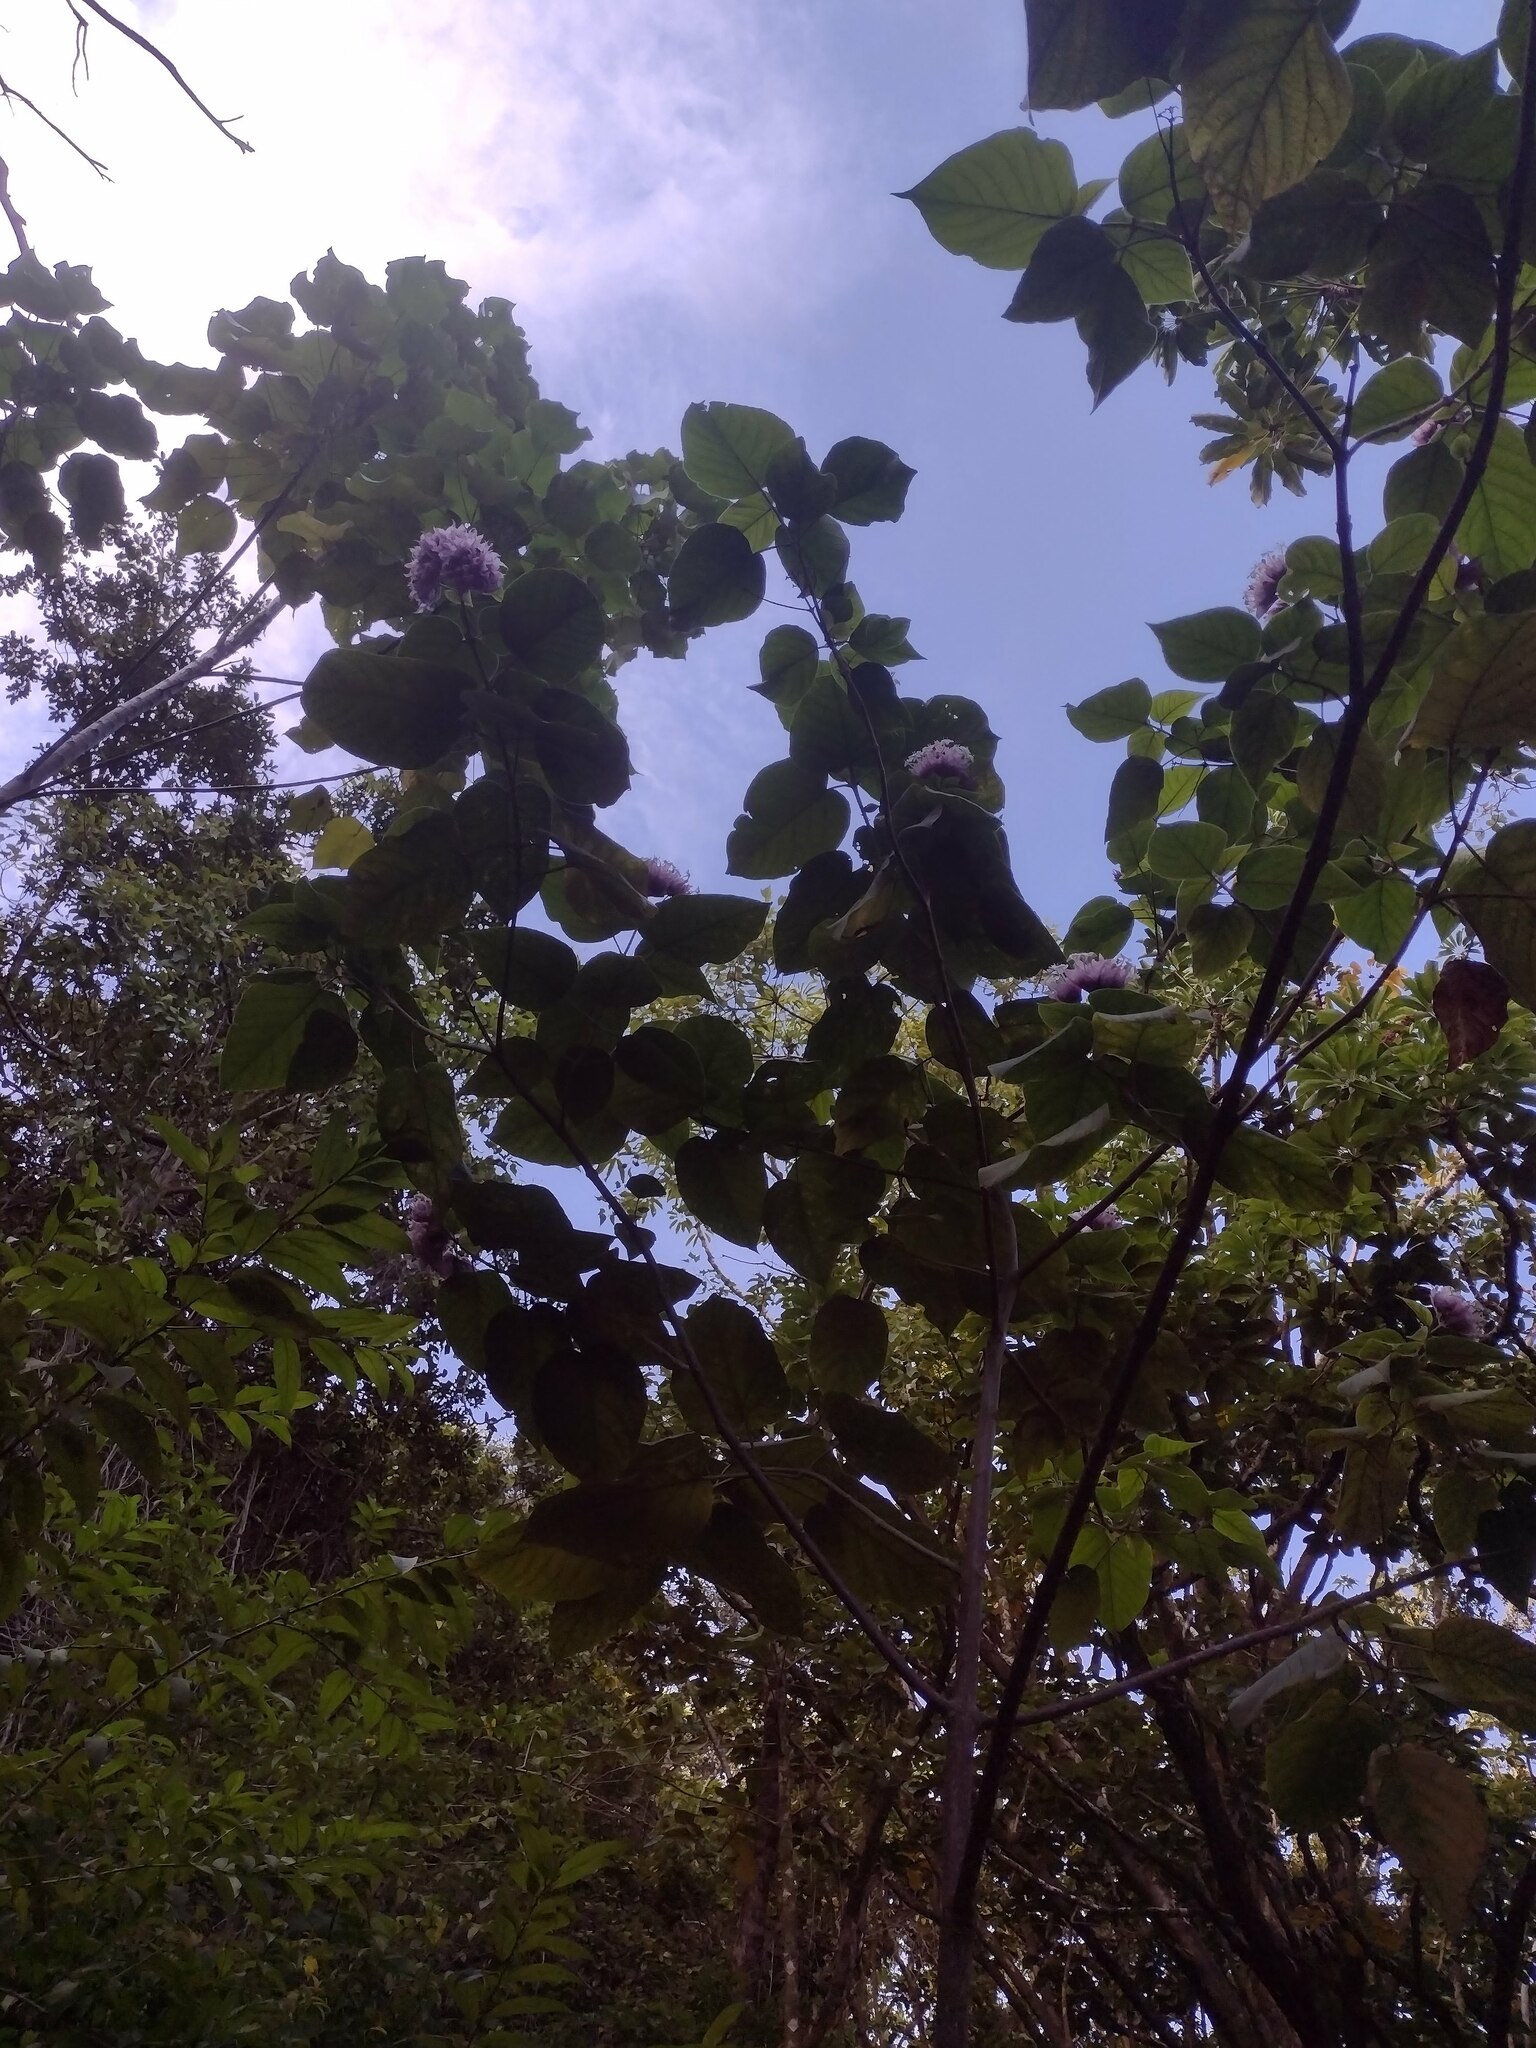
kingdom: Plantae
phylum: Tracheophyta
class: Magnoliopsida
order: Lamiales
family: Lamiaceae
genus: Clerodendrum
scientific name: Clerodendrum macrostegium
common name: Velvetleaf glorybower
